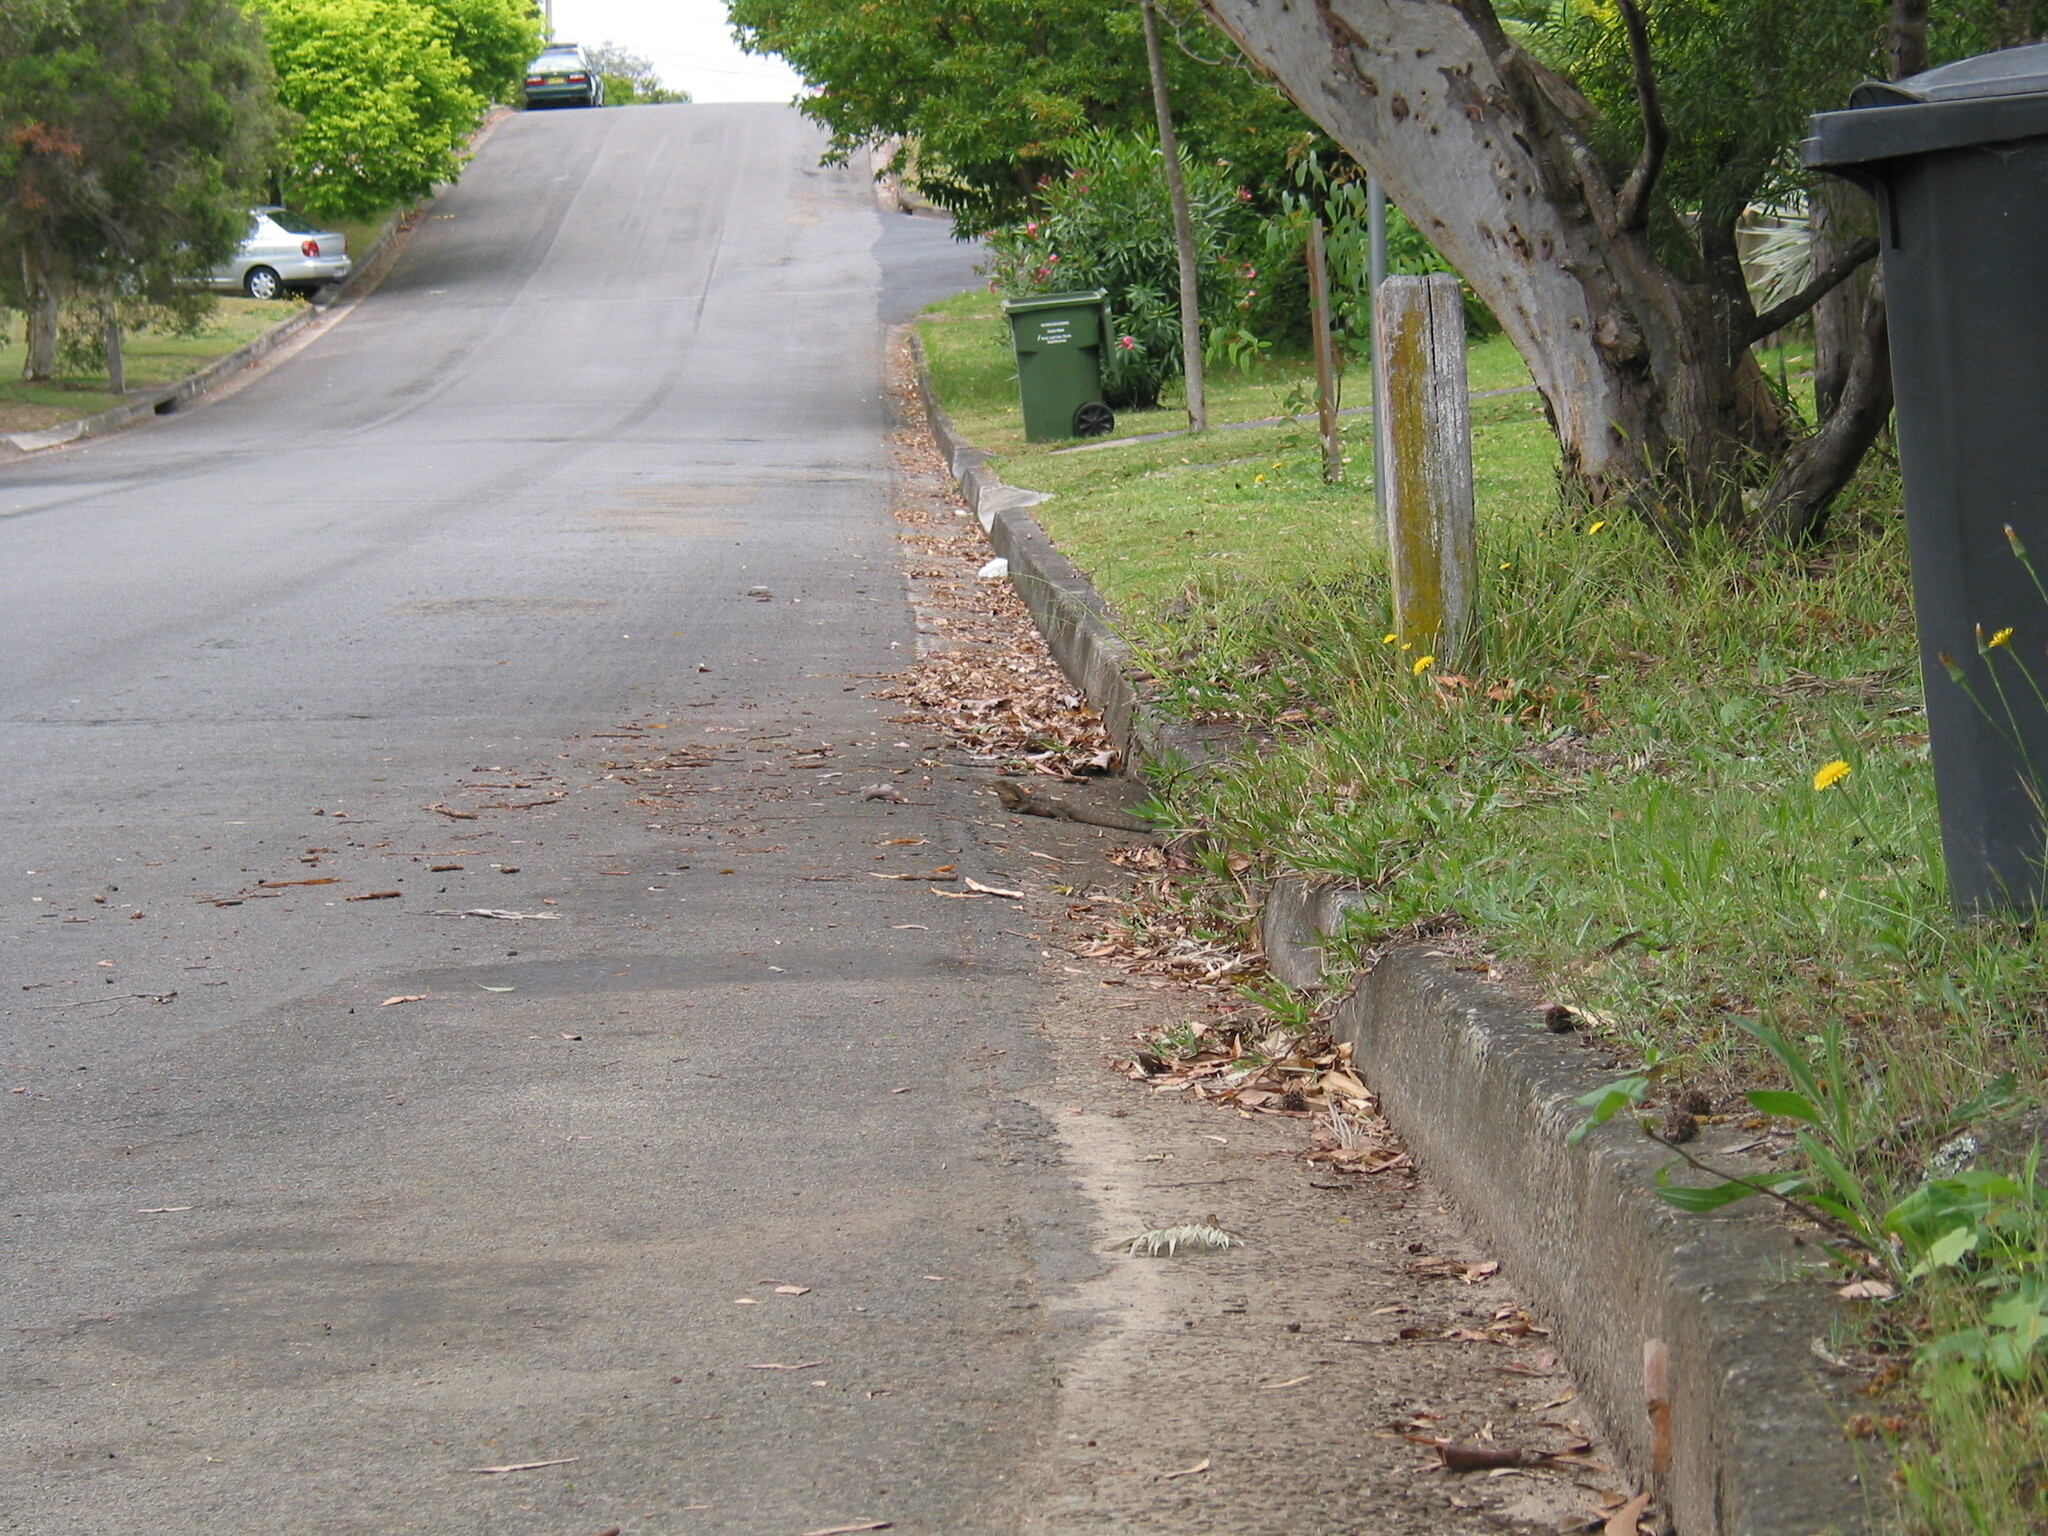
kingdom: Animalia
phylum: Chordata
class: Squamata
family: Agamidae
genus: Intellagama
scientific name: Intellagama lesueurii
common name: Eastern water dragon
